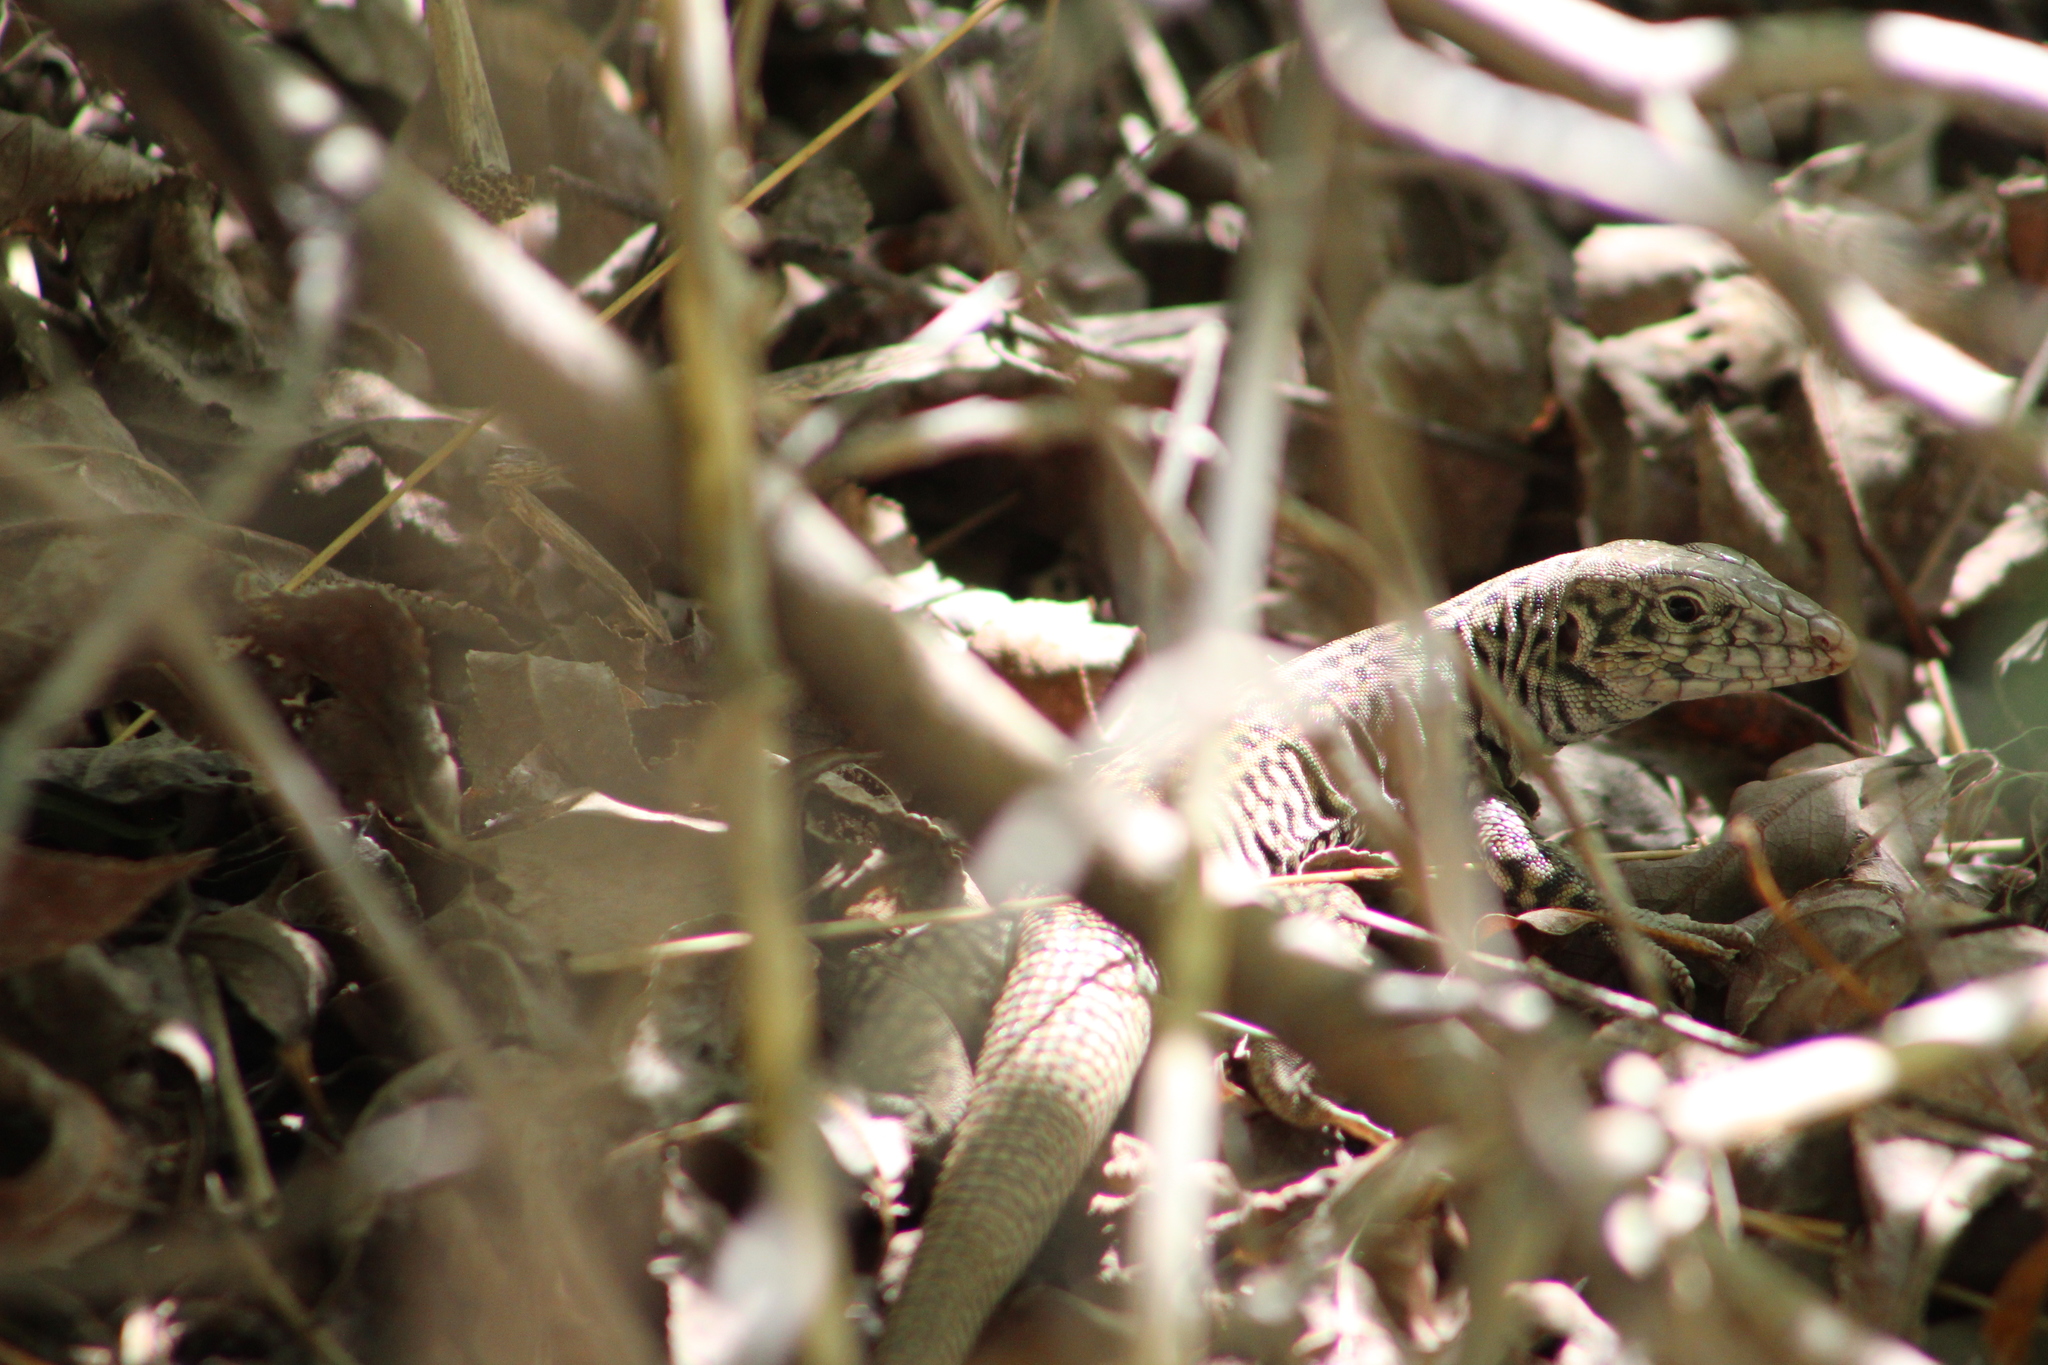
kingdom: Animalia
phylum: Chordata
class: Squamata
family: Teiidae
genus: Aspidoscelis
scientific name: Aspidoscelis tigris
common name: Tiger whiptail
